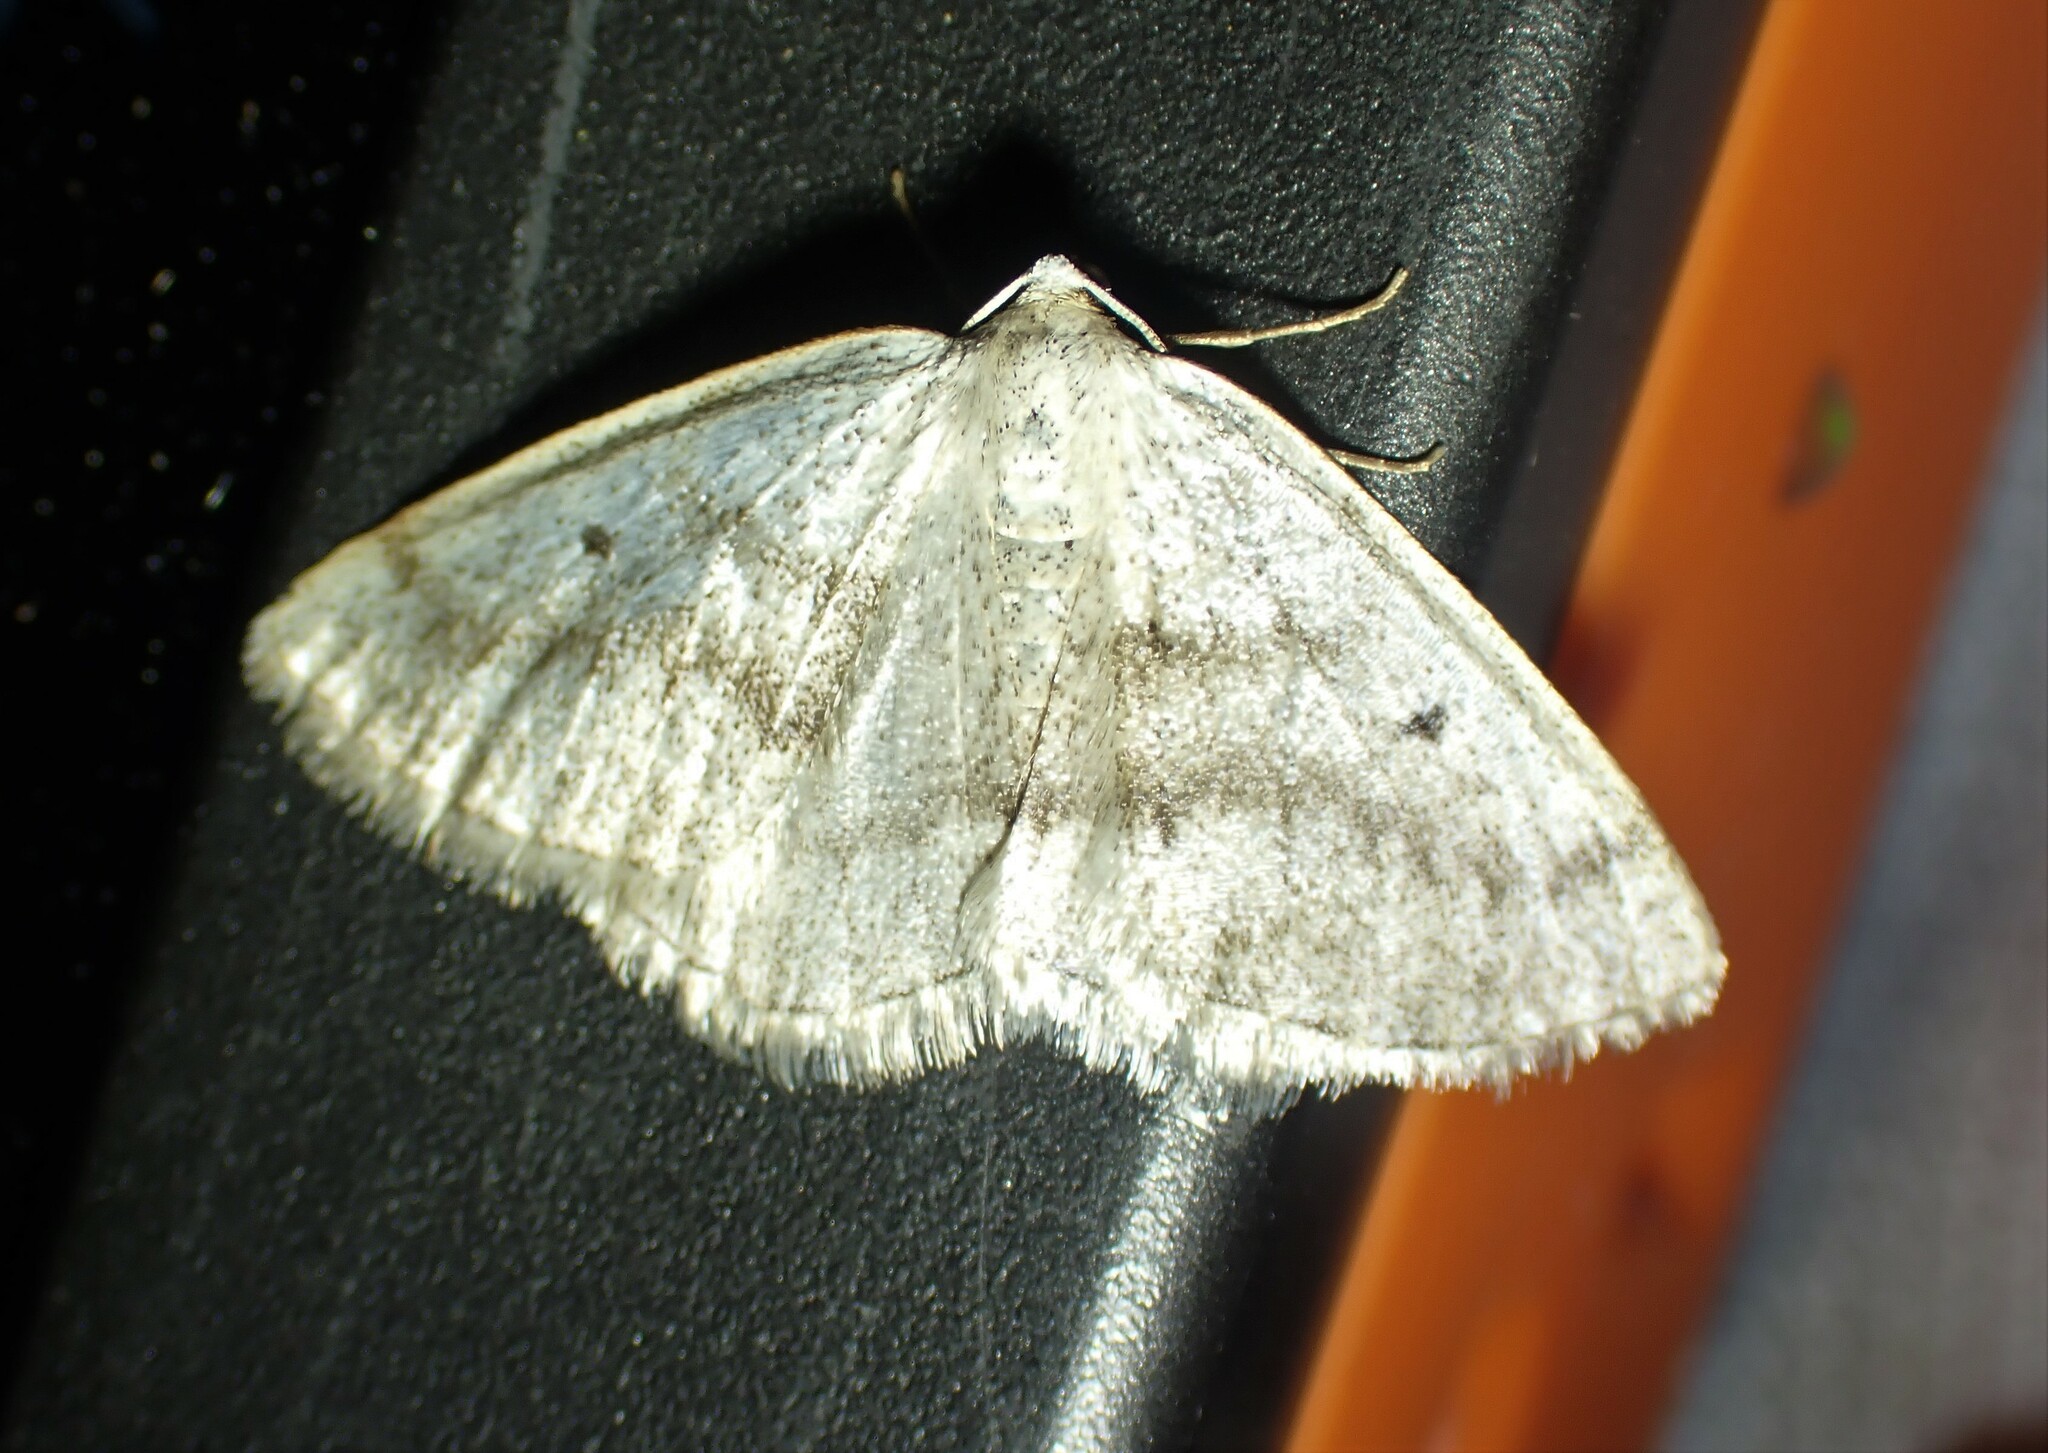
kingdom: Animalia
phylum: Arthropoda
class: Insecta
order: Lepidoptera
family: Geometridae
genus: Lomographa
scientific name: Lomographa glomeraria
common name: Gray spring moth
